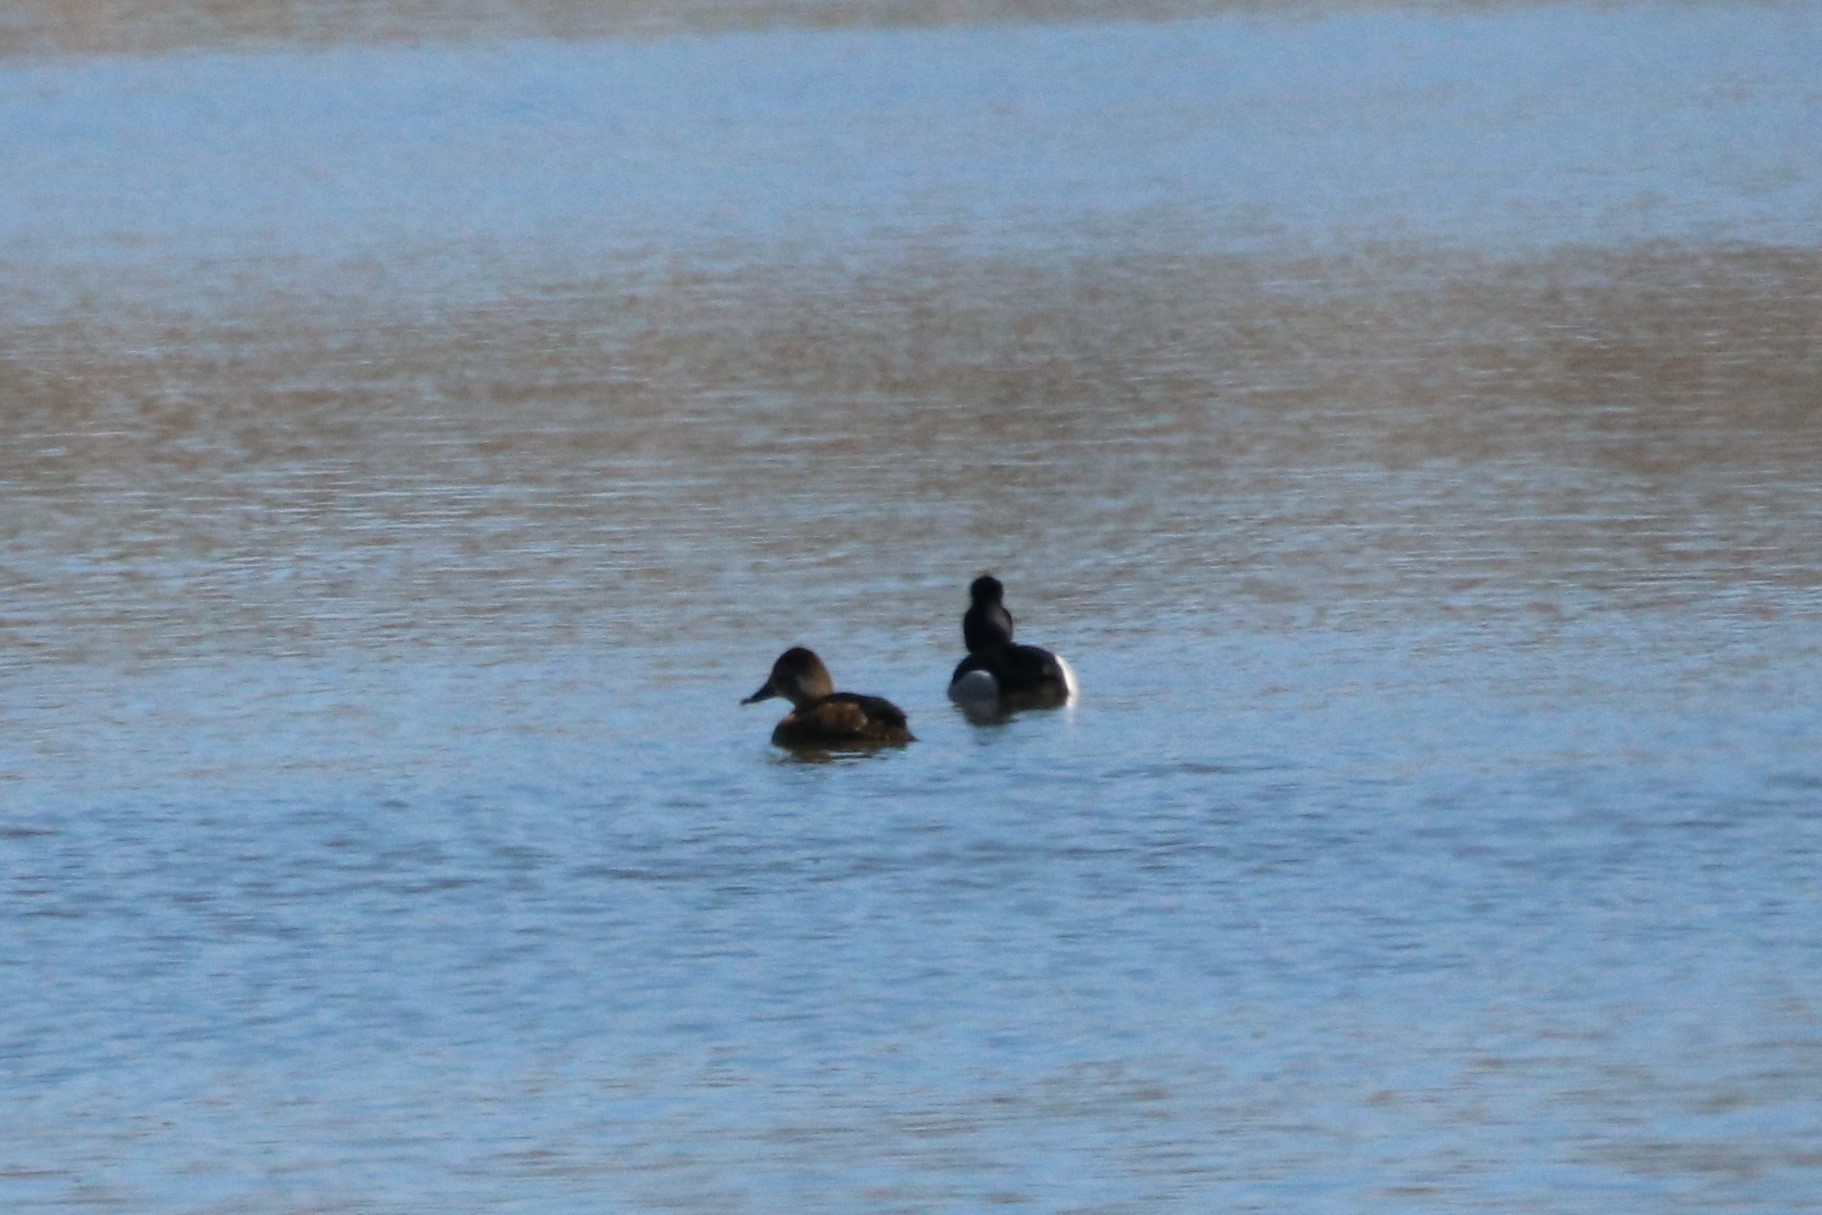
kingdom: Animalia
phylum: Chordata
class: Aves
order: Anseriformes
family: Anatidae
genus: Aythya
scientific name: Aythya collaris
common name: Ring-necked duck
